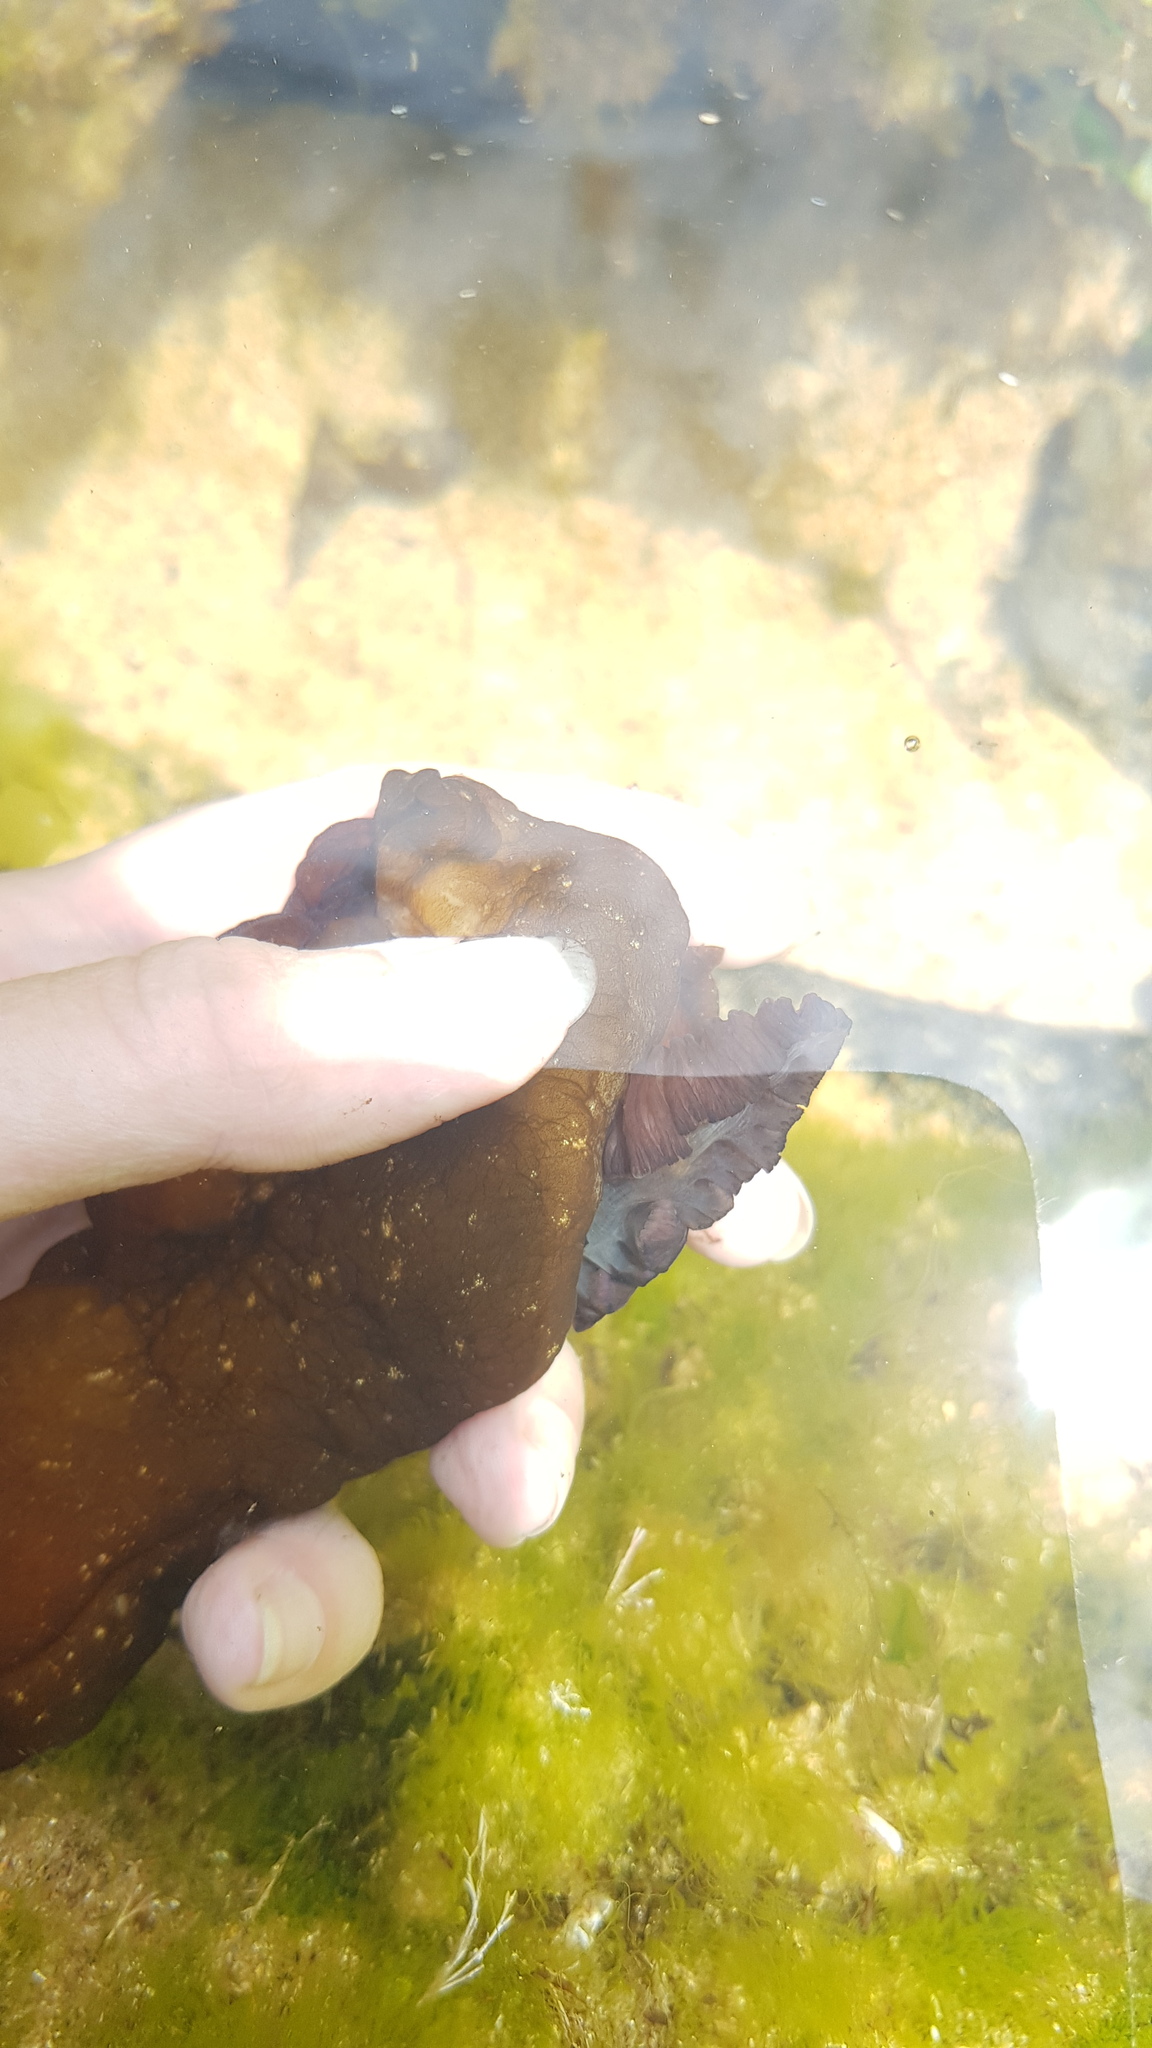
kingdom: Animalia
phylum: Mollusca
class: Gastropoda
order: Aplysiida
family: Aplysiidae
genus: Aplysia
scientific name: Aplysia juliana
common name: Walking sea hare
